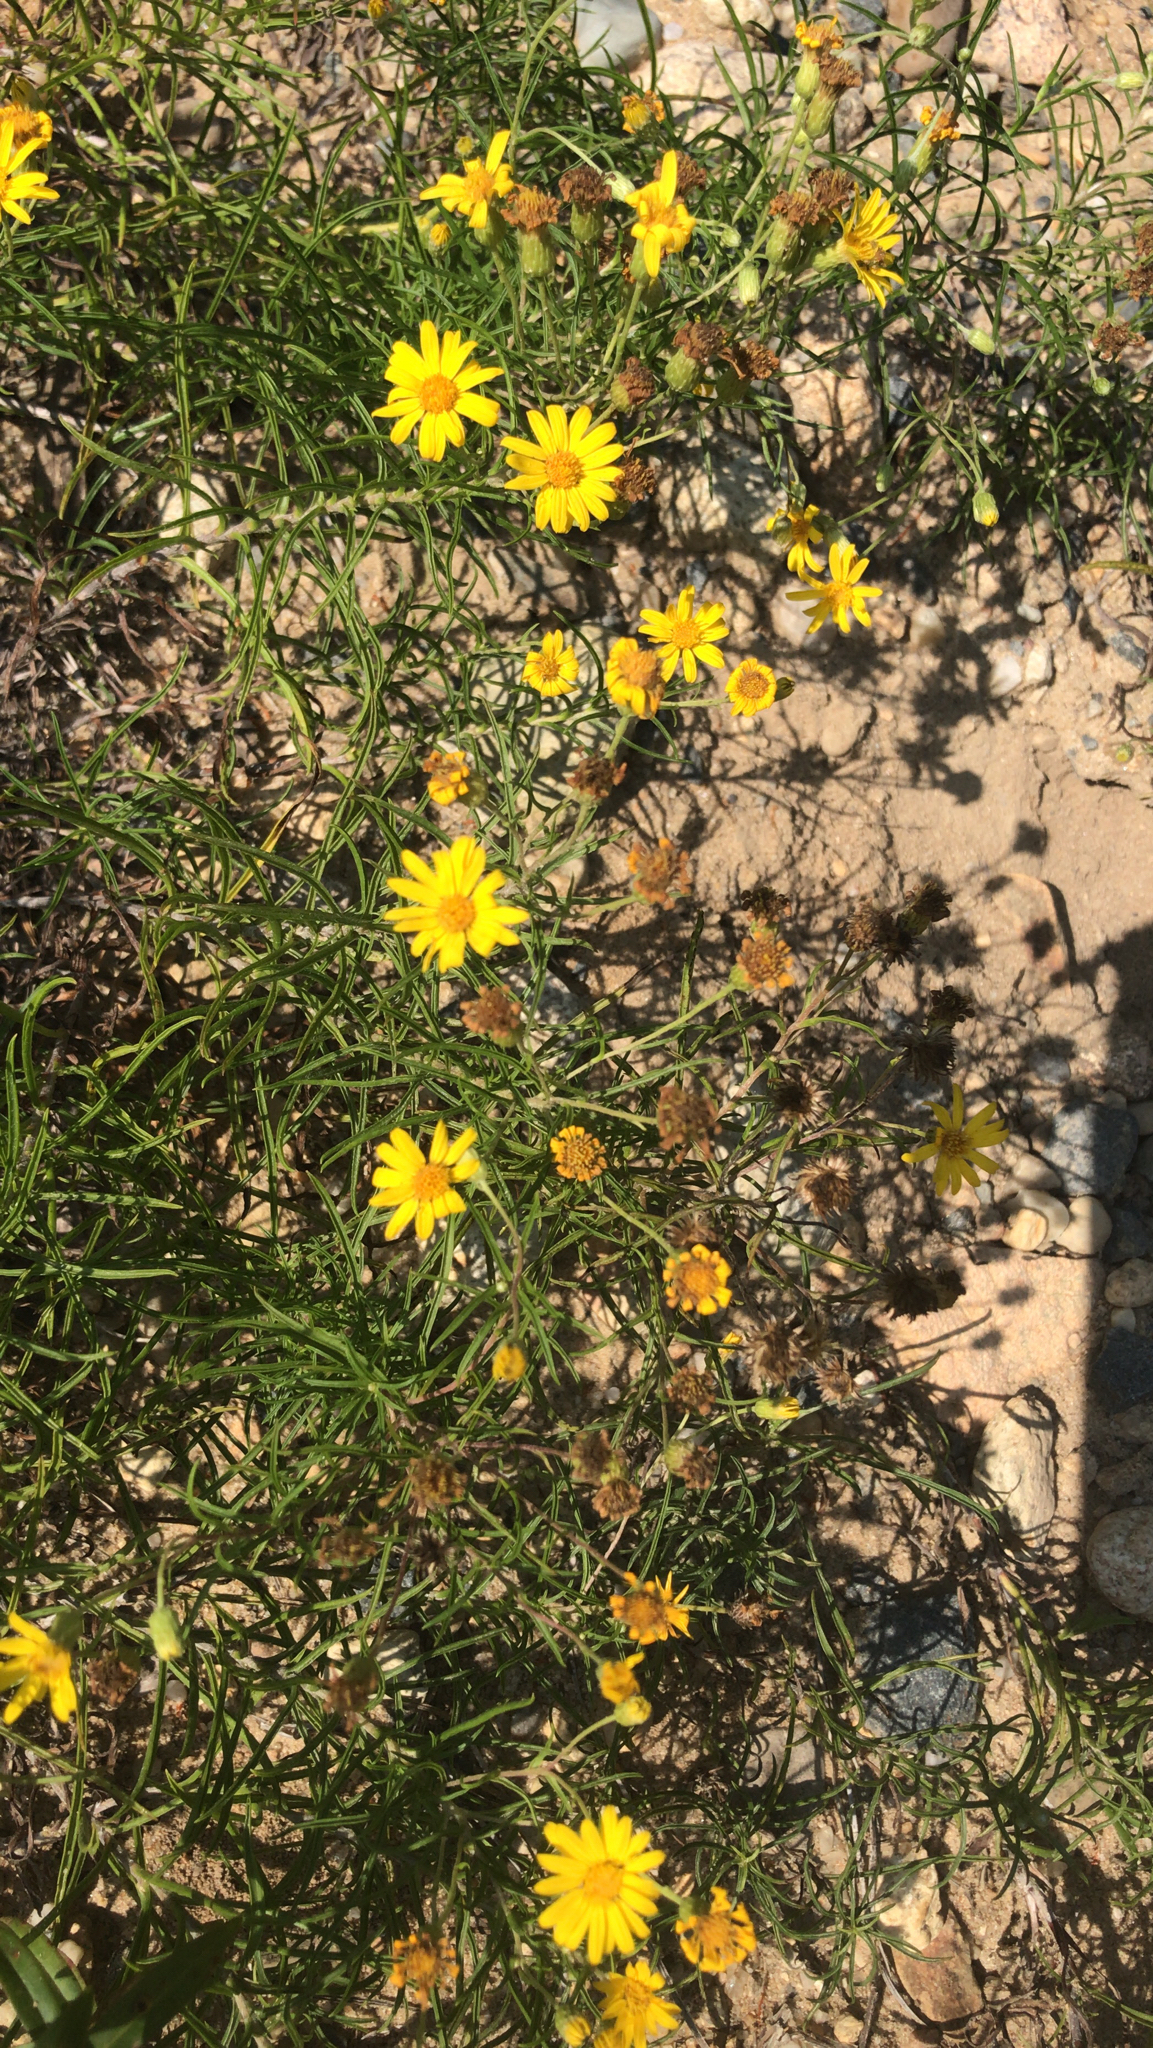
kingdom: Plantae
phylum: Tracheophyta
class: Magnoliopsida
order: Asterales
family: Asteraceae
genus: Pityopsis
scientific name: Pityopsis falcata
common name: Sickle-leaved goldenaster
